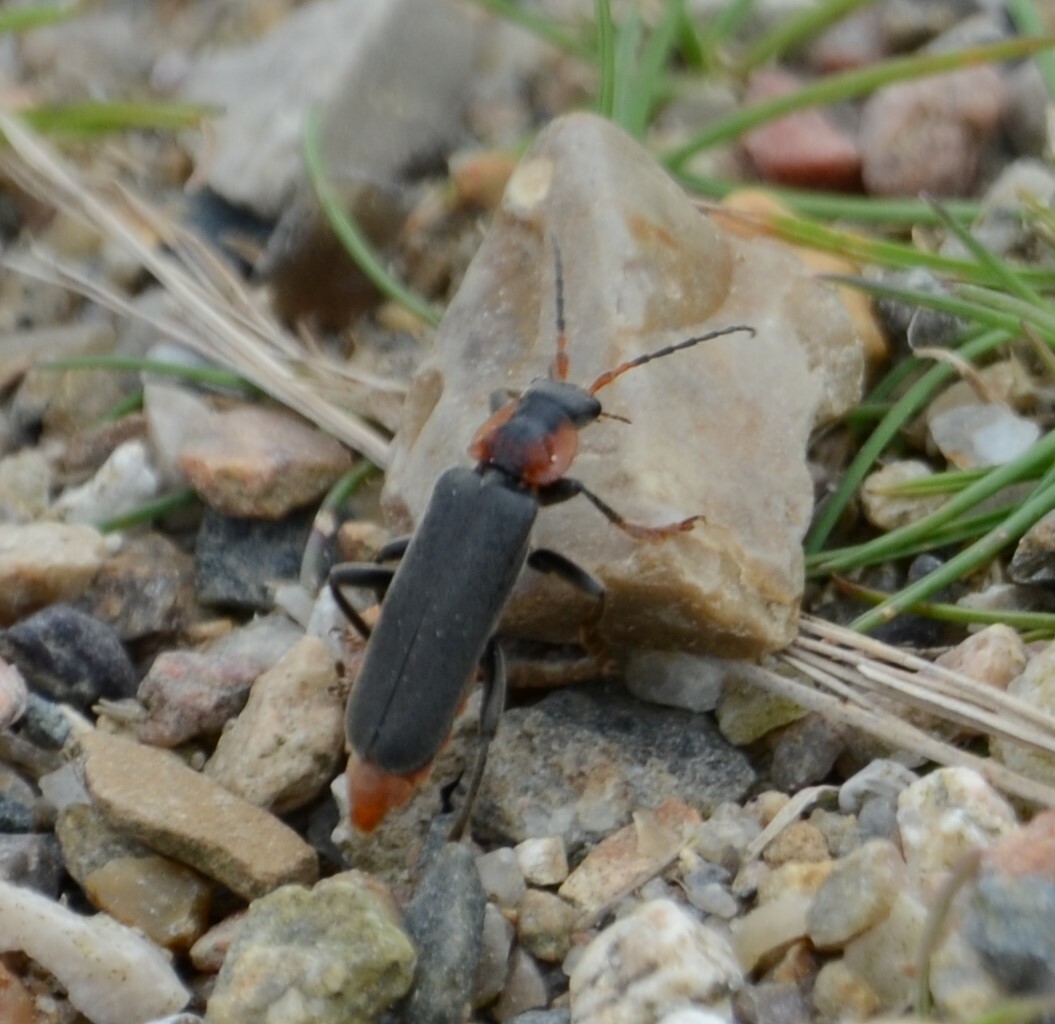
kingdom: Animalia
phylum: Arthropoda
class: Insecta
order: Coleoptera
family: Cantharidae
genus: Cantharis
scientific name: Cantharis fusca
